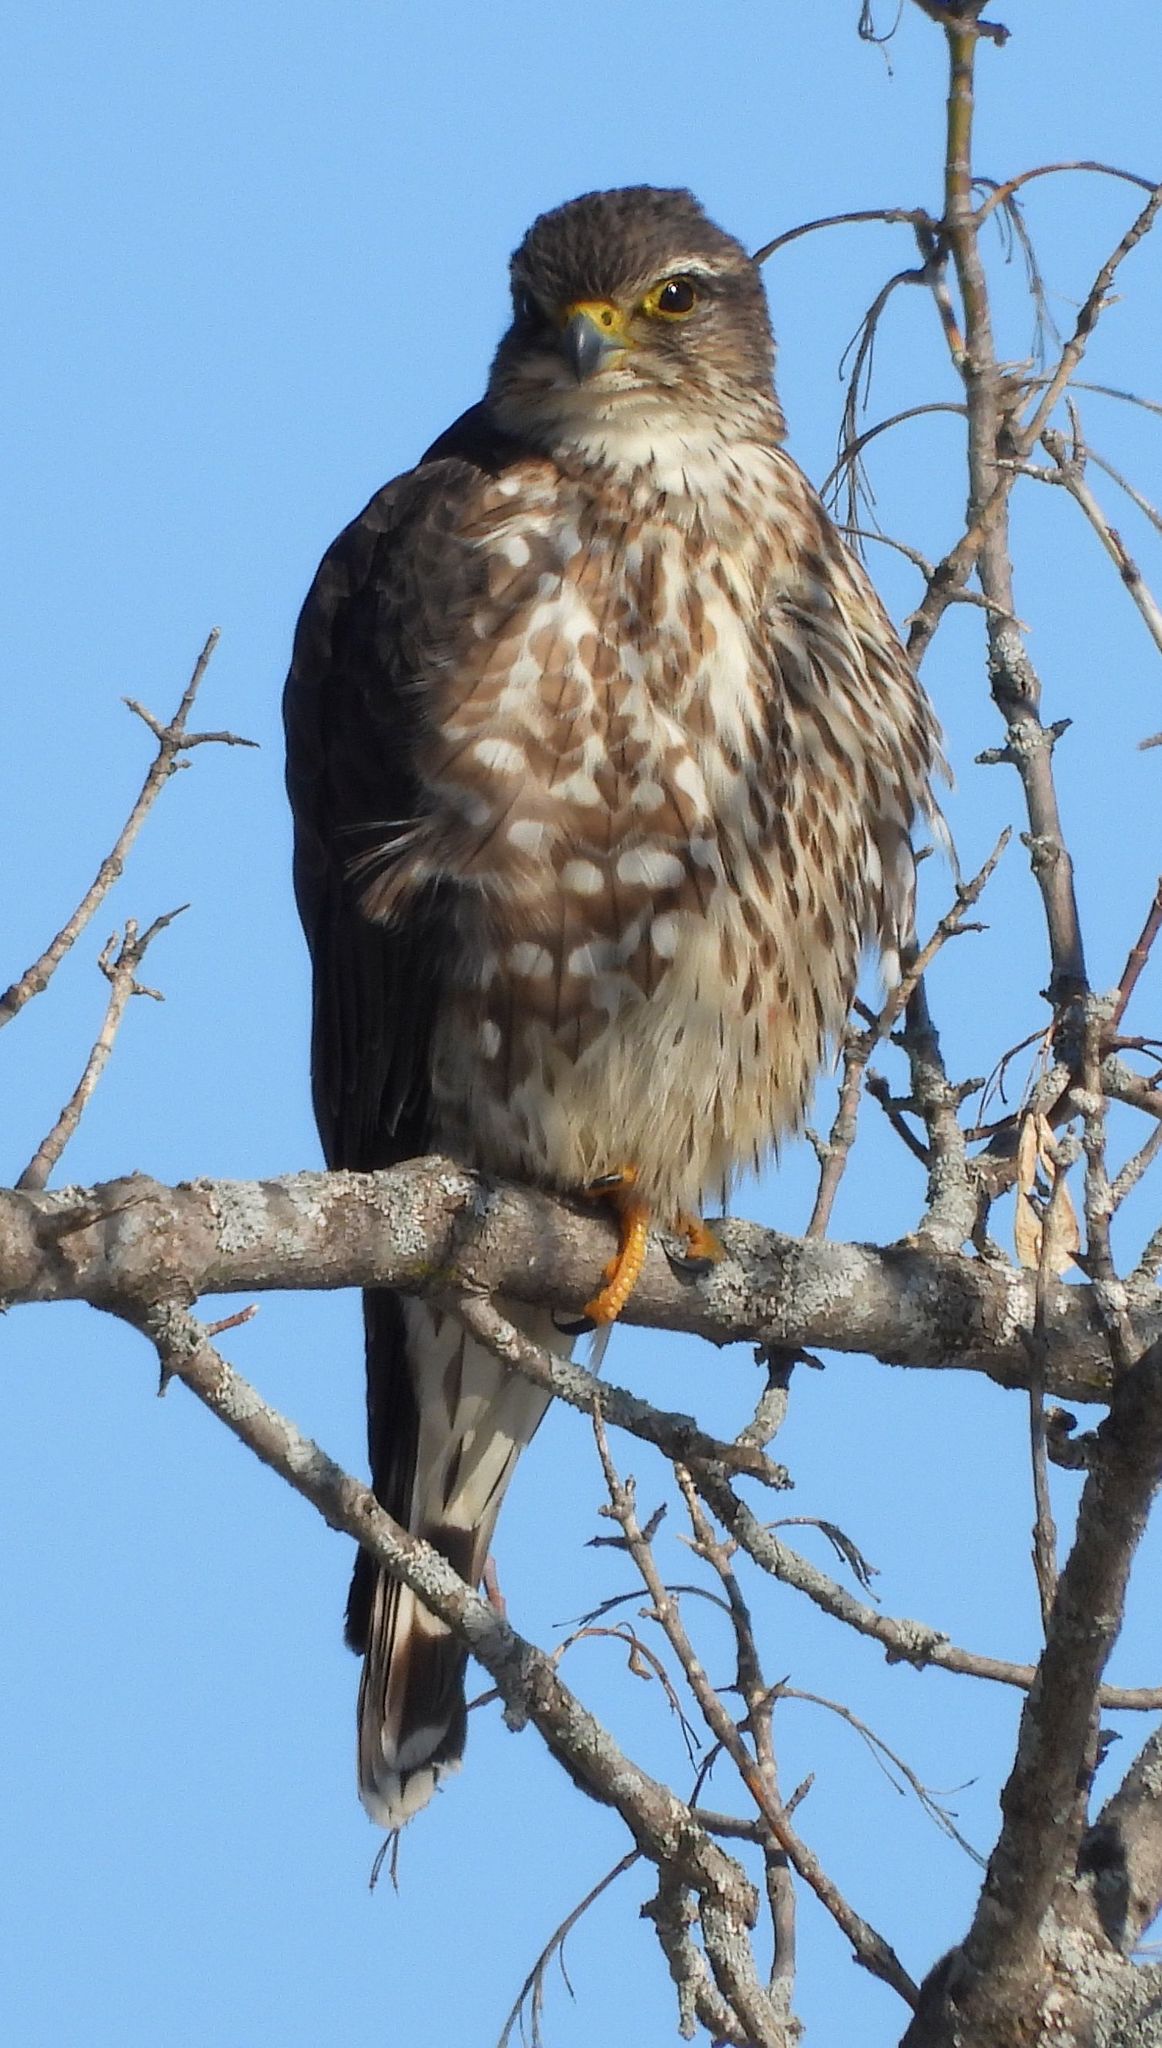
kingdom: Animalia
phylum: Chordata
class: Aves
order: Falconiformes
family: Falconidae
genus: Falco
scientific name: Falco columbarius
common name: Merlin
